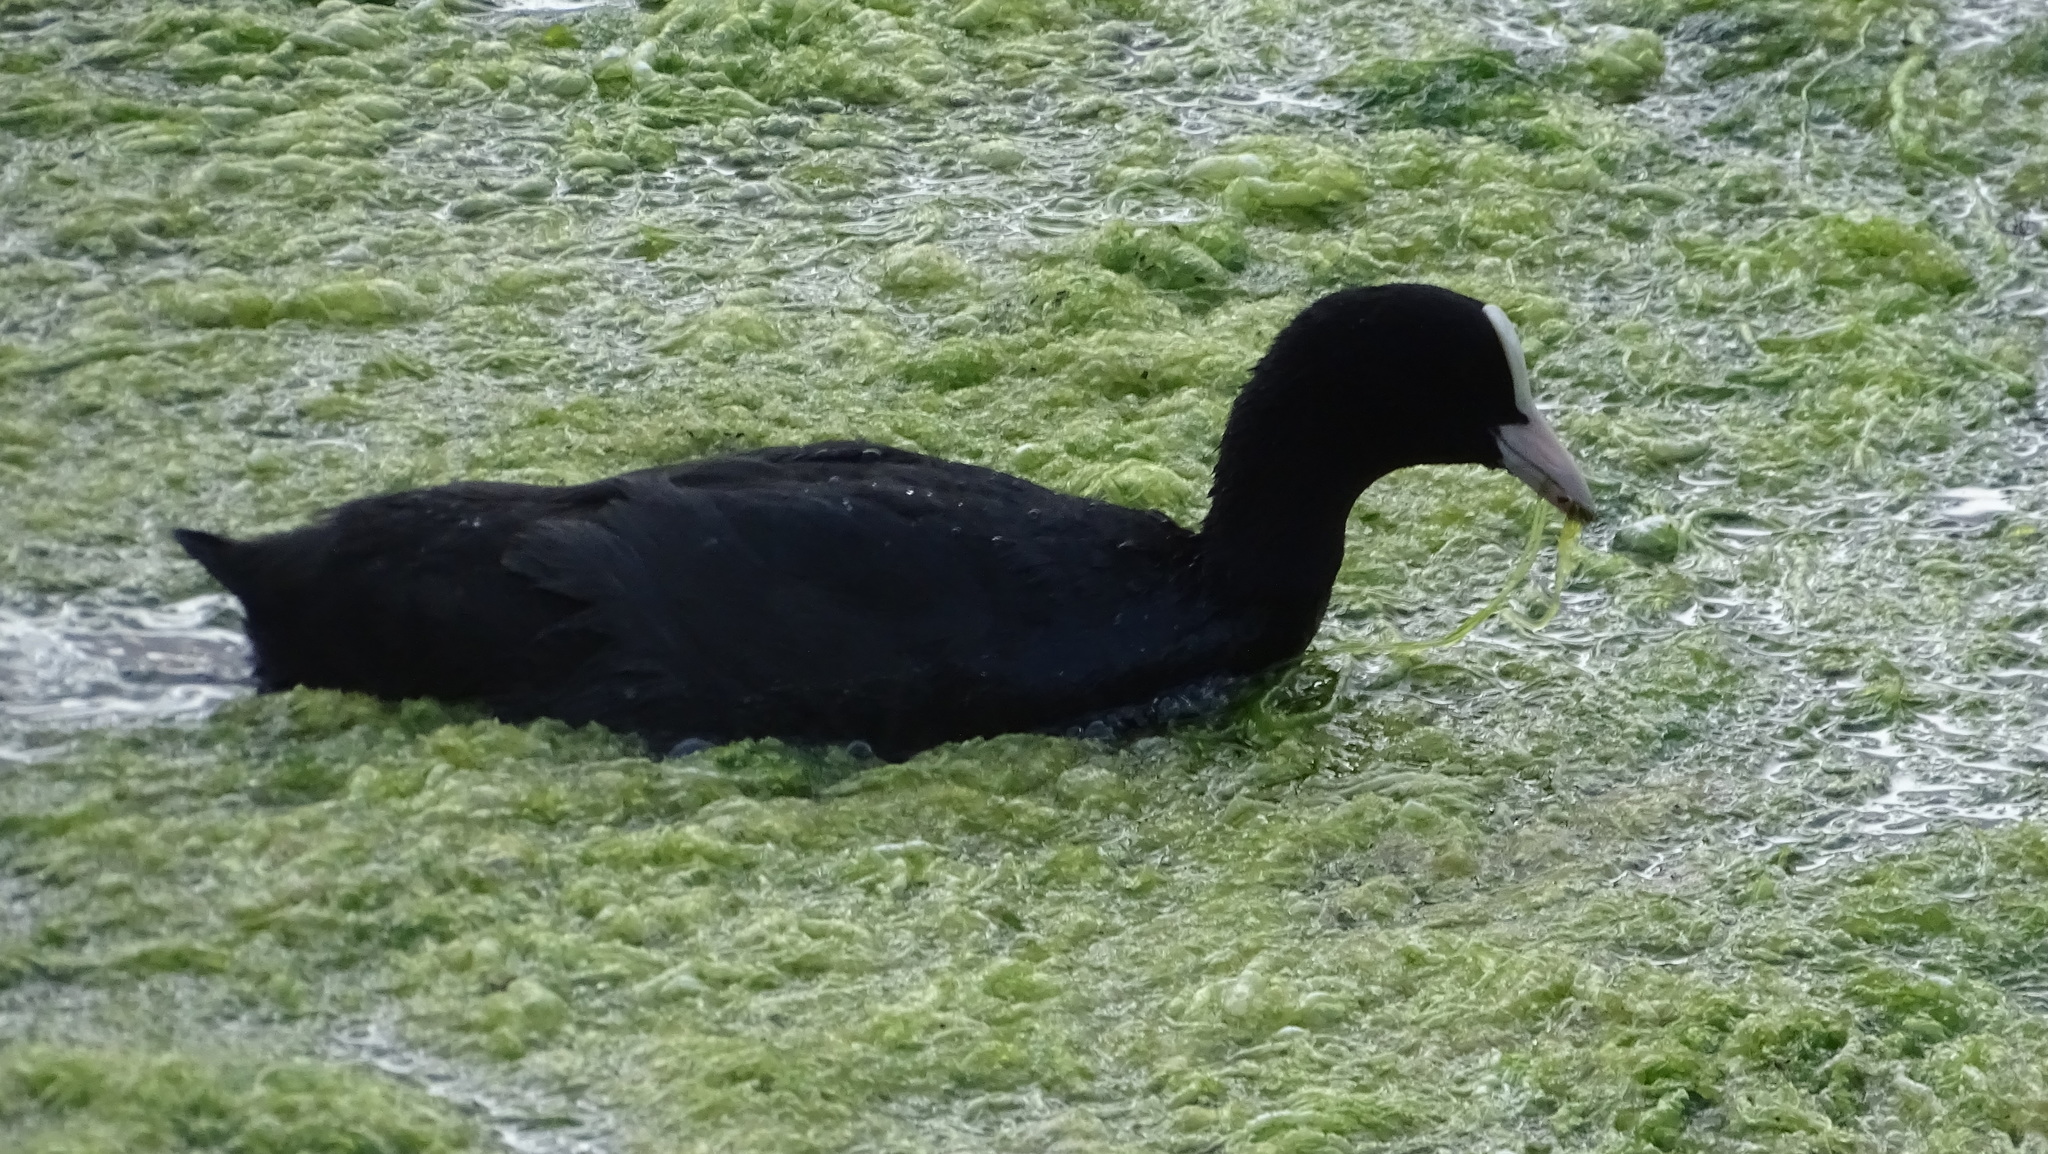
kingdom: Animalia
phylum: Chordata
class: Aves
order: Gruiformes
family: Rallidae
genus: Fulica
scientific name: Fulica atra
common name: Eurasian coot
